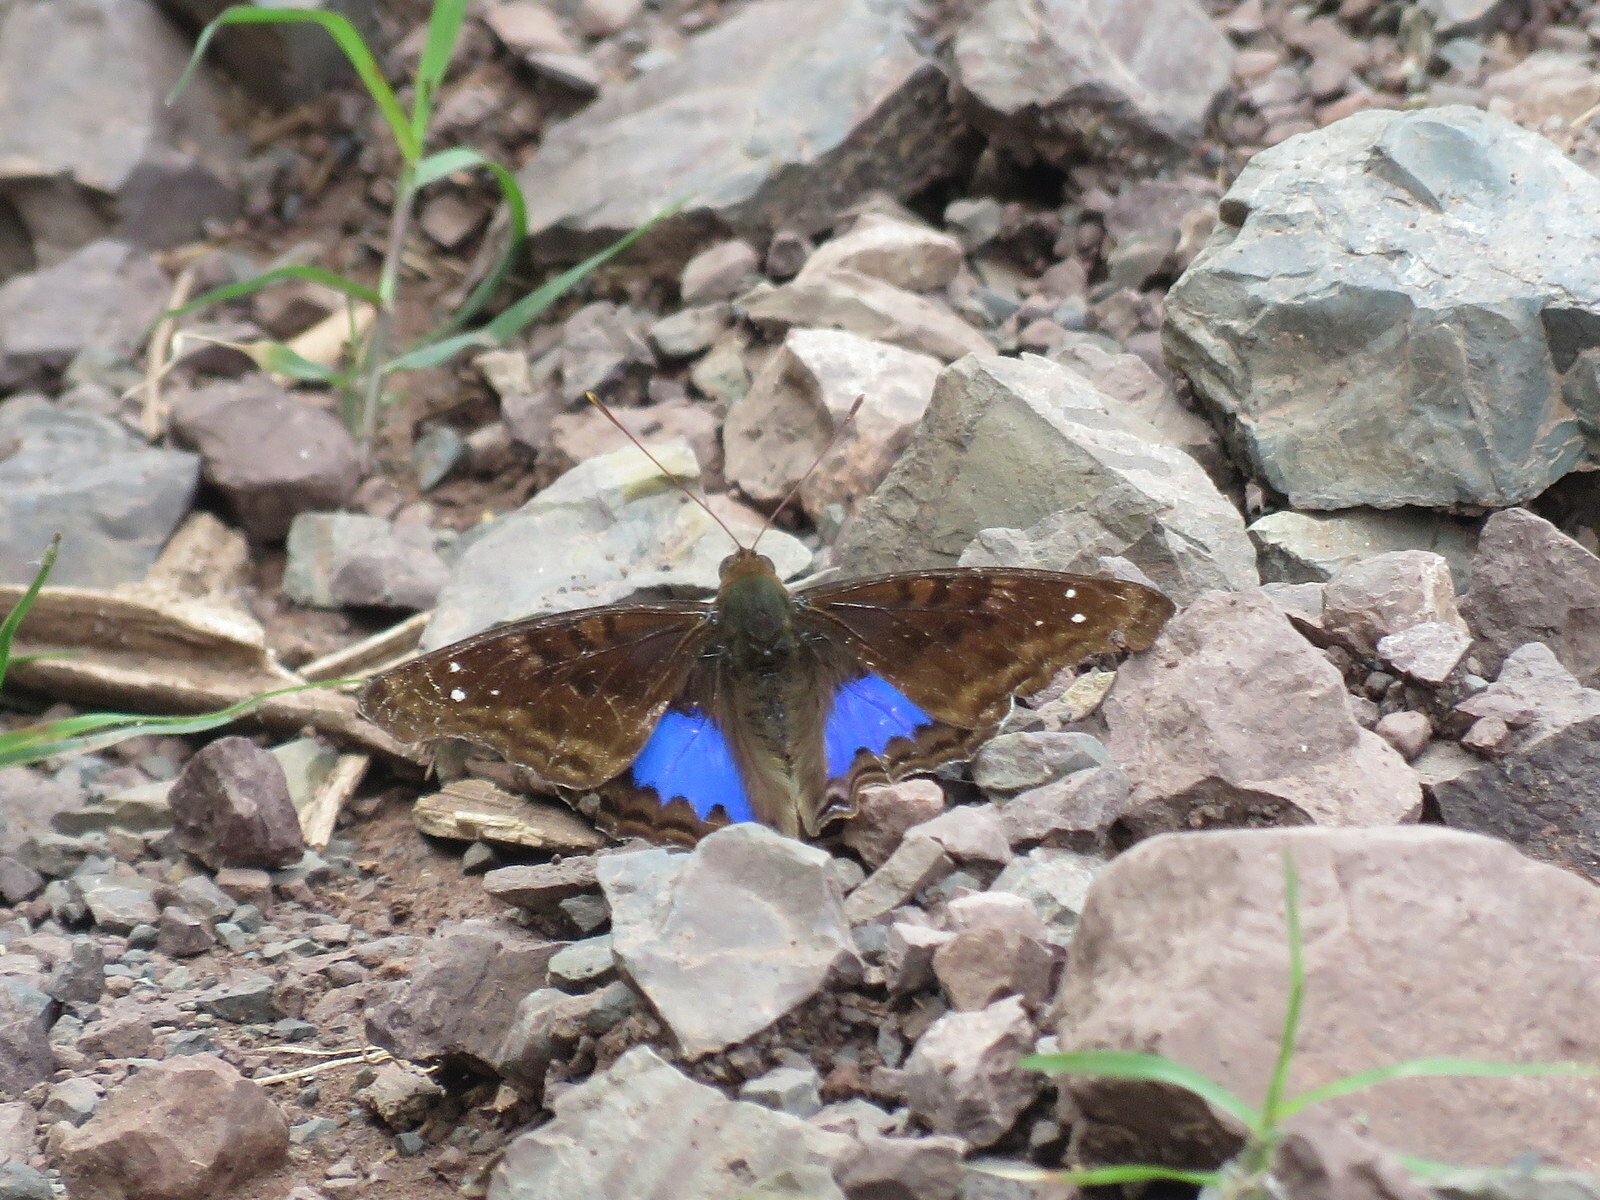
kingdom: Animalia
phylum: Arthropoda
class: Insecta
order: Lepidoptera
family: Nymphalidae
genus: Doxocopa
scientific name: Doxocopa cyane
